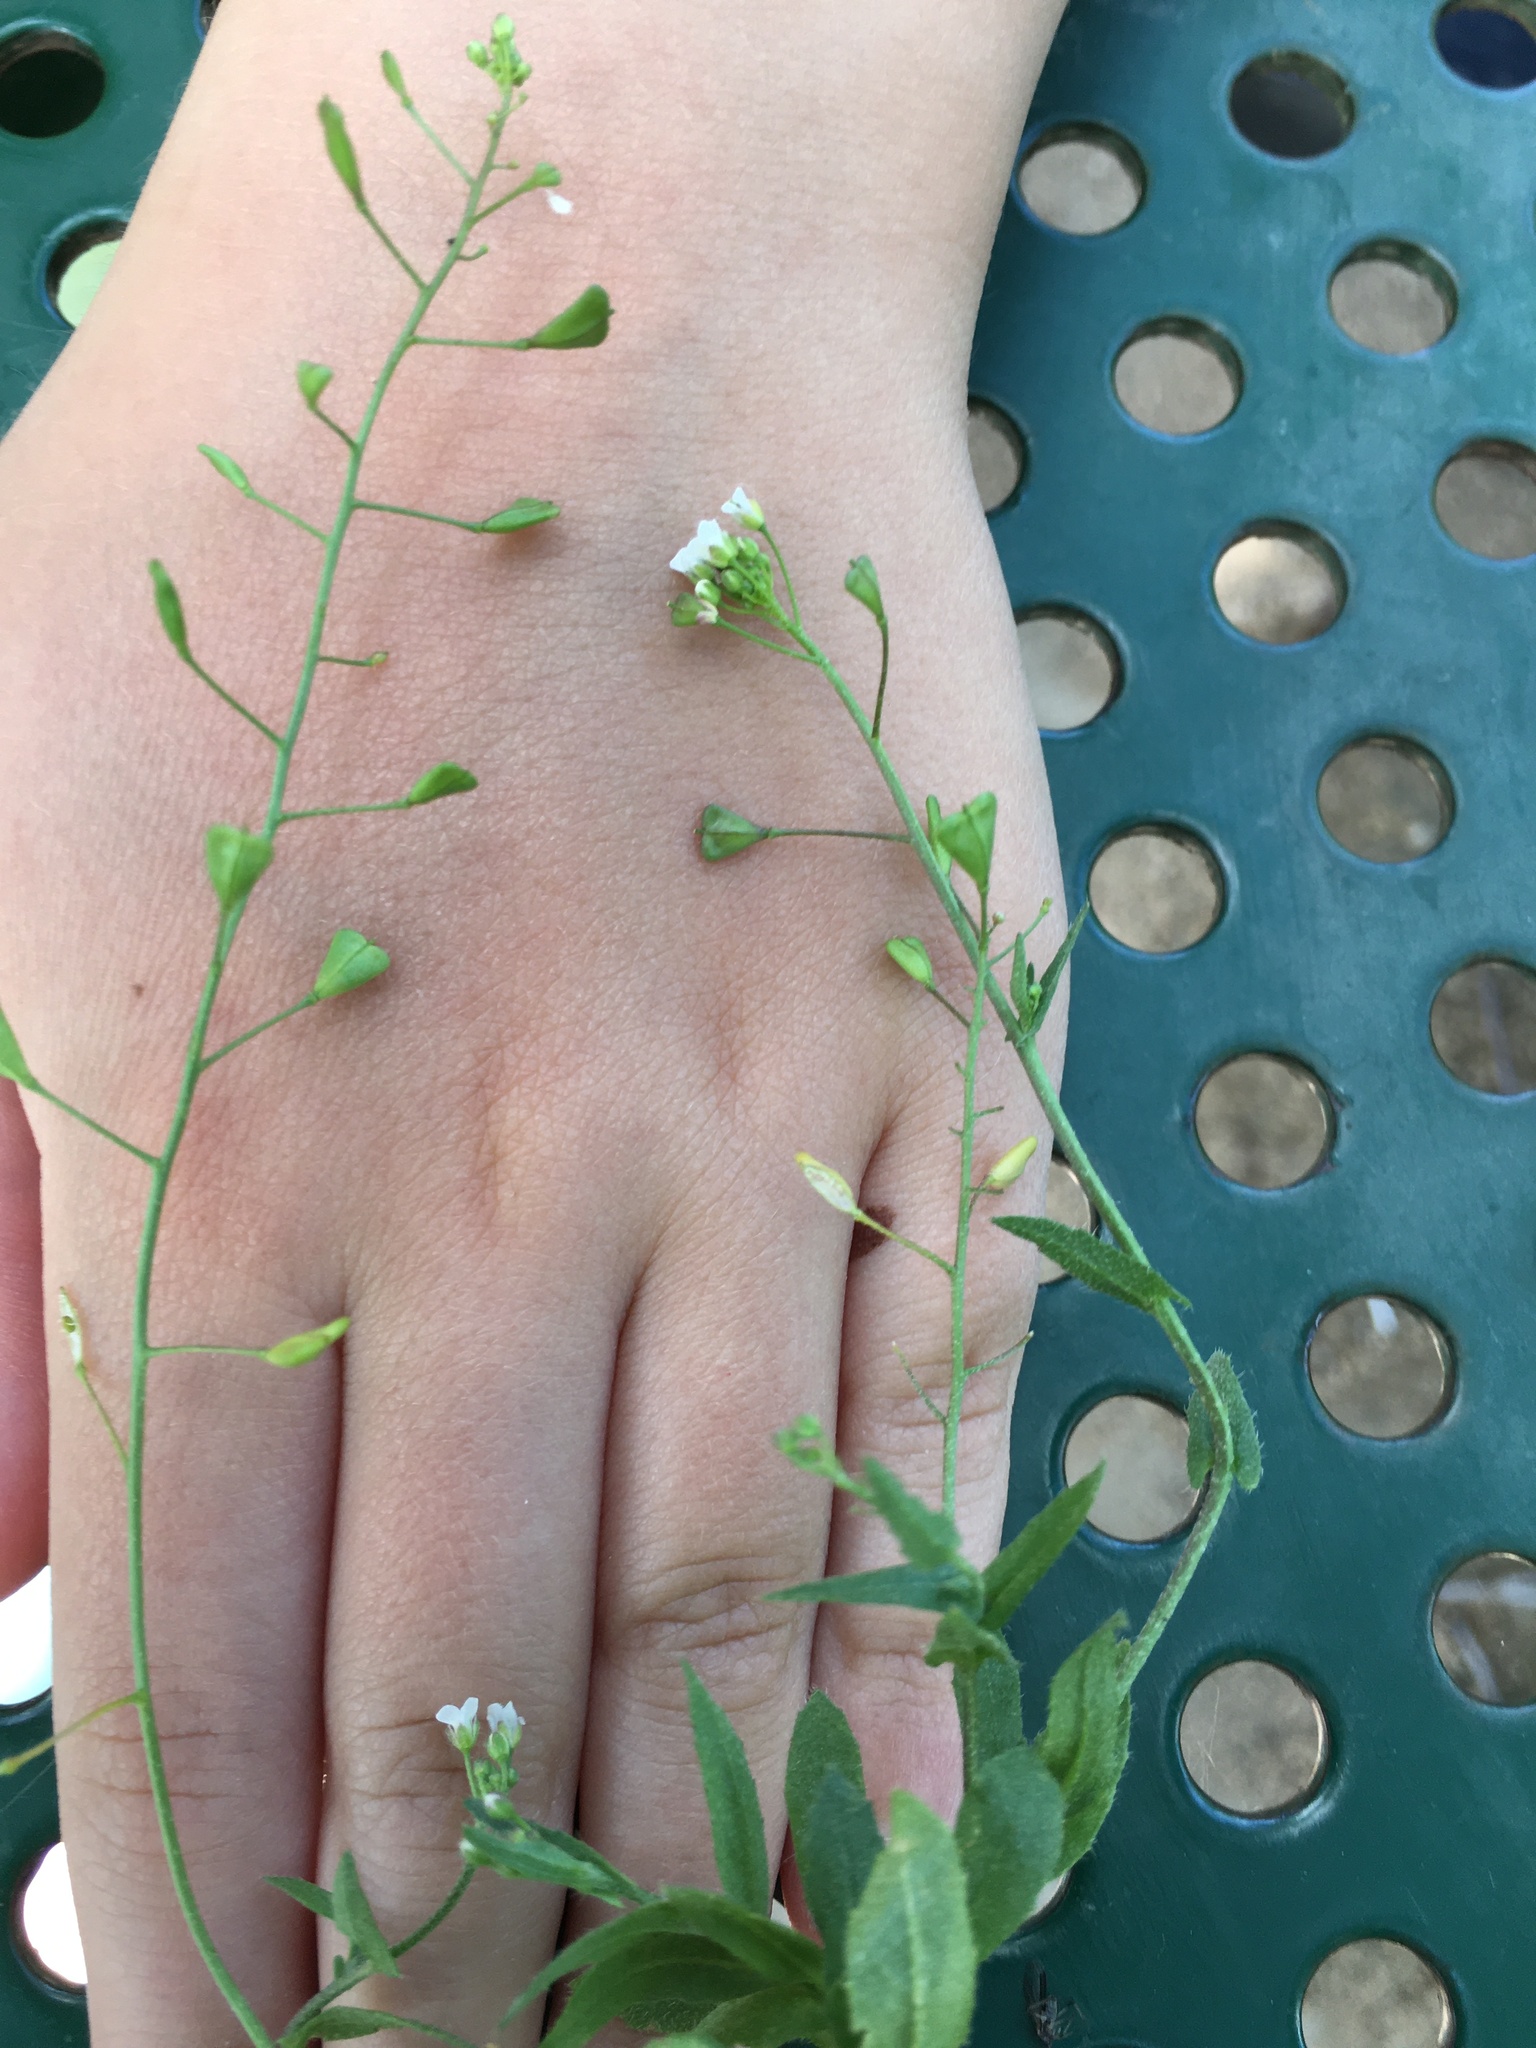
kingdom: Plantae
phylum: Tracheophyta
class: Magnoliopsida
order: Brassicales
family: Brassicaceae
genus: Capsella
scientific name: Capsella bursa-pastoris
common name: Shepherd's purse
